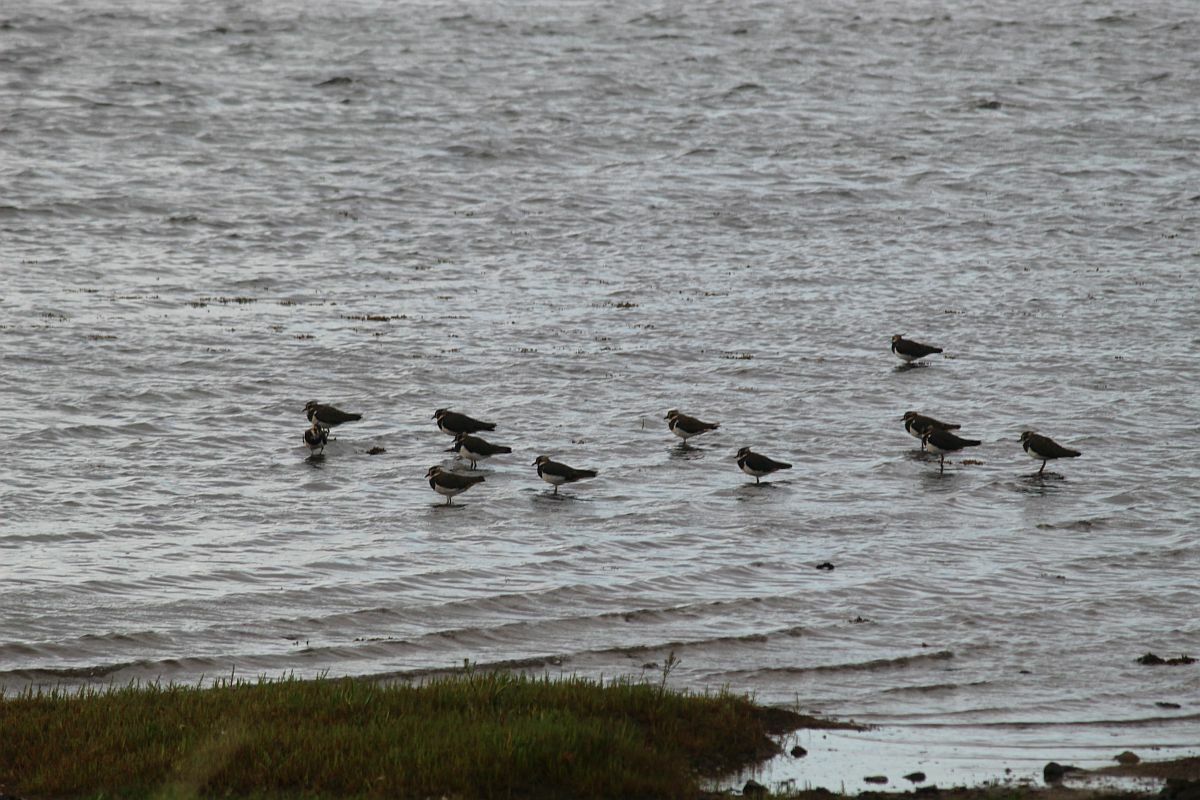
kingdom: Animalia
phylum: Chordata
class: Aves
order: Charadriiformes
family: Charadriidae
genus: Vanellus
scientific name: Vanellus vanellus
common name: Northern lapwing
